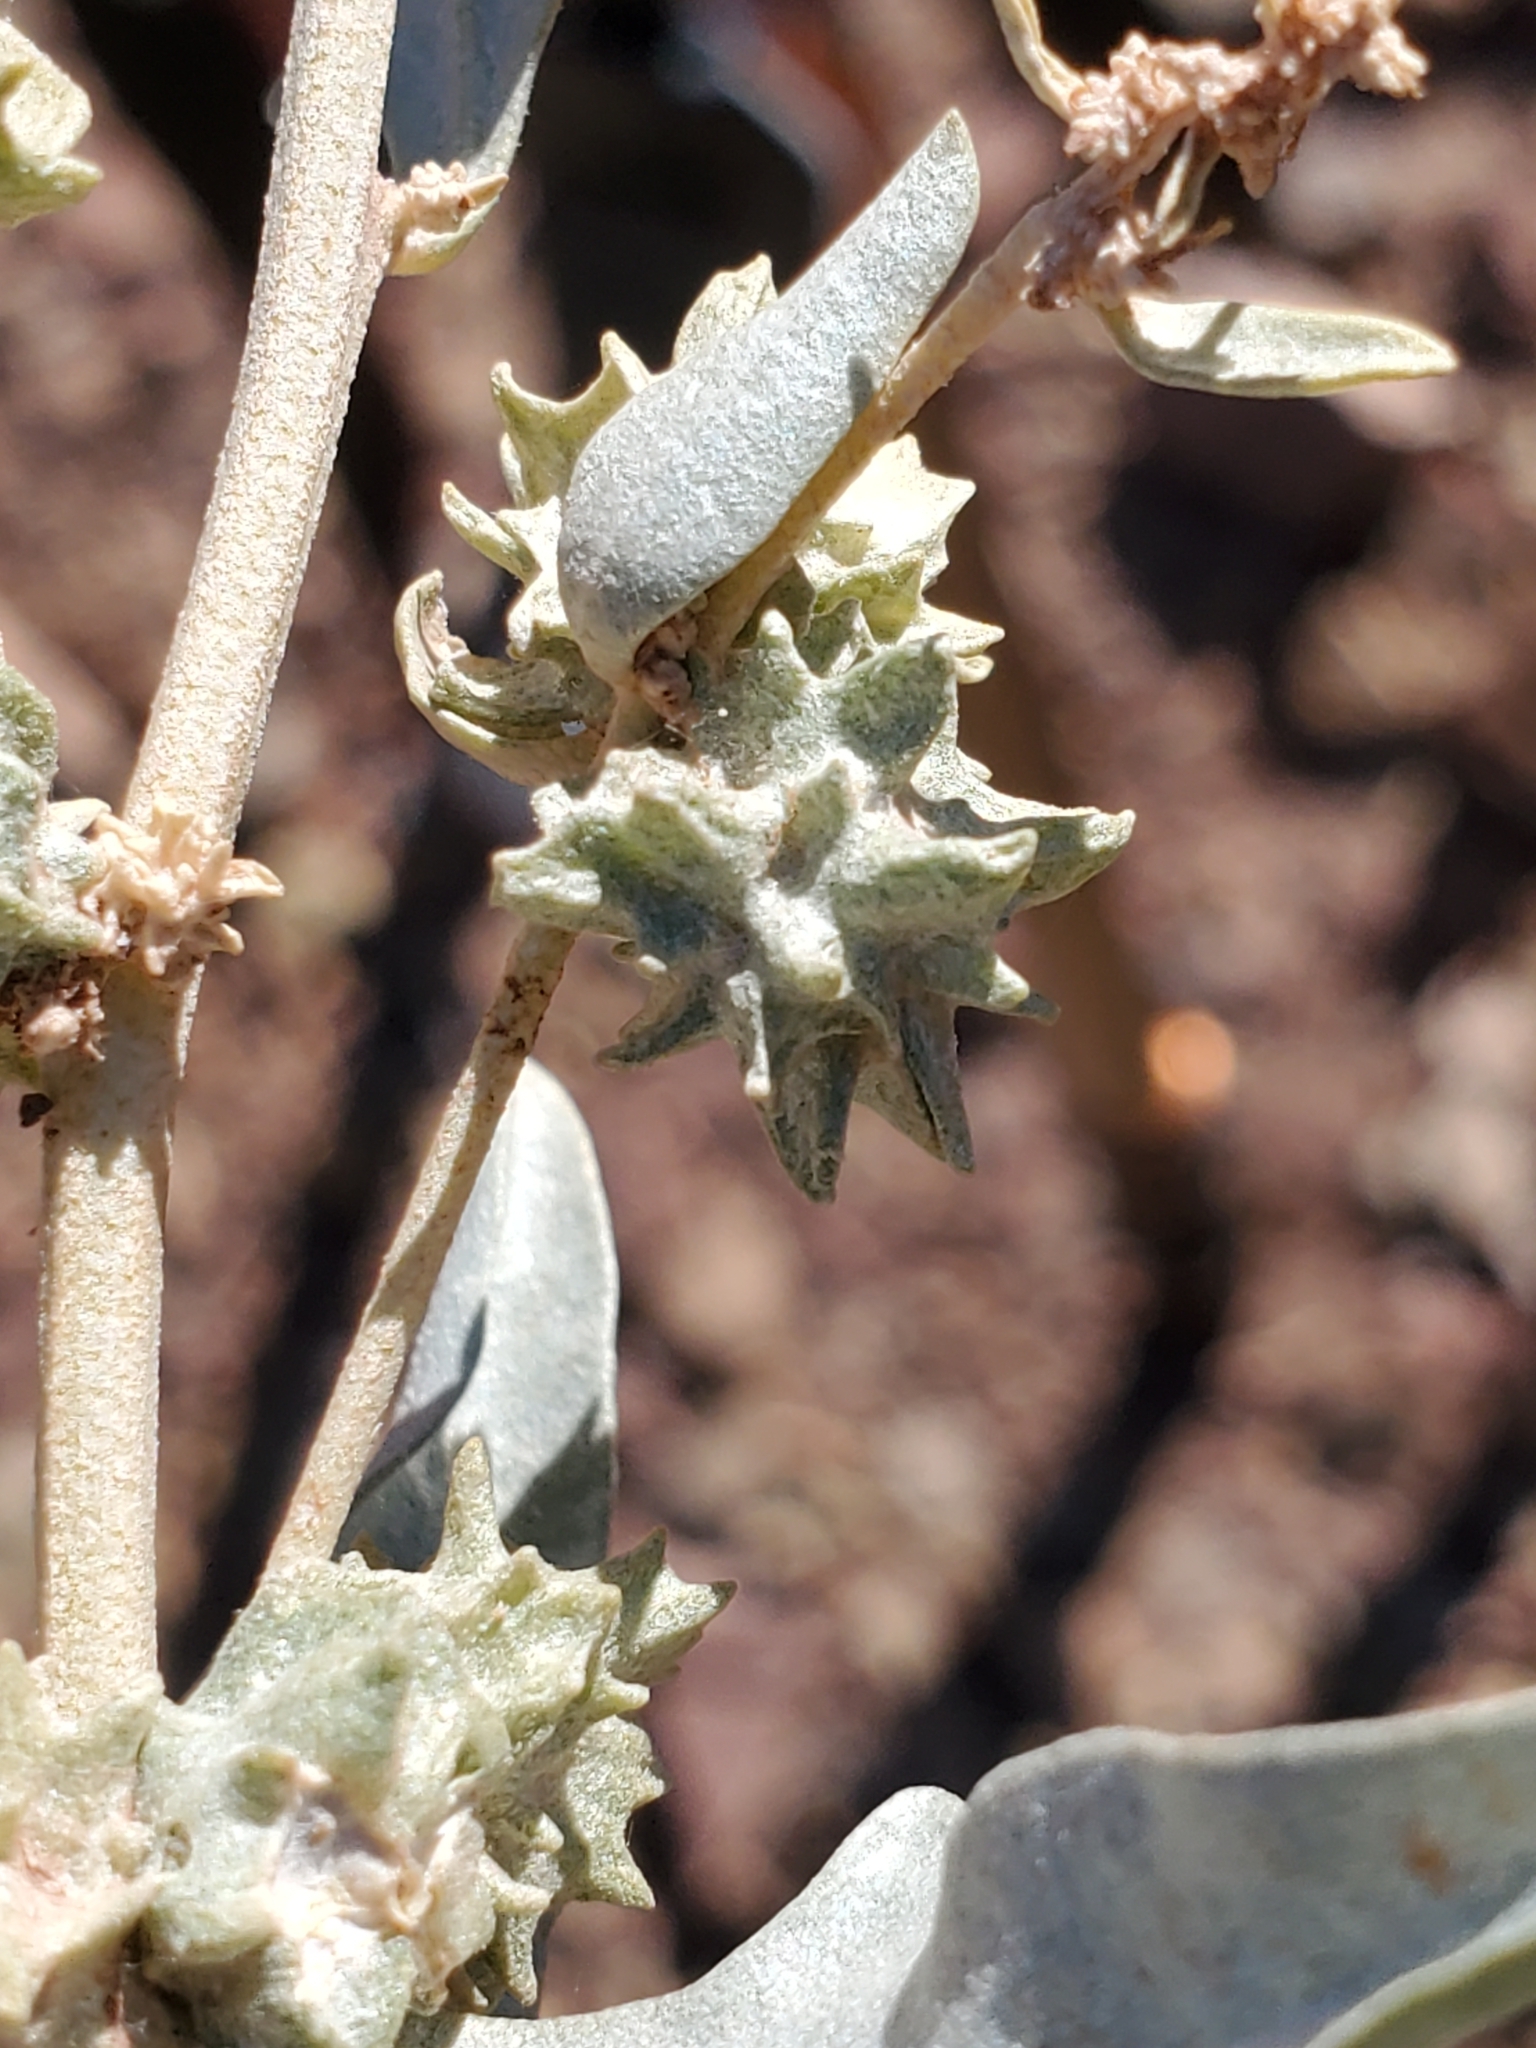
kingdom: Plantae
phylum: Tracheophyta
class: Magnoliopsida
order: Caryophyllales
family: Amaranthaceae
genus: Atriplex
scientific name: Atriplex elegans
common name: Wheelscale orach
